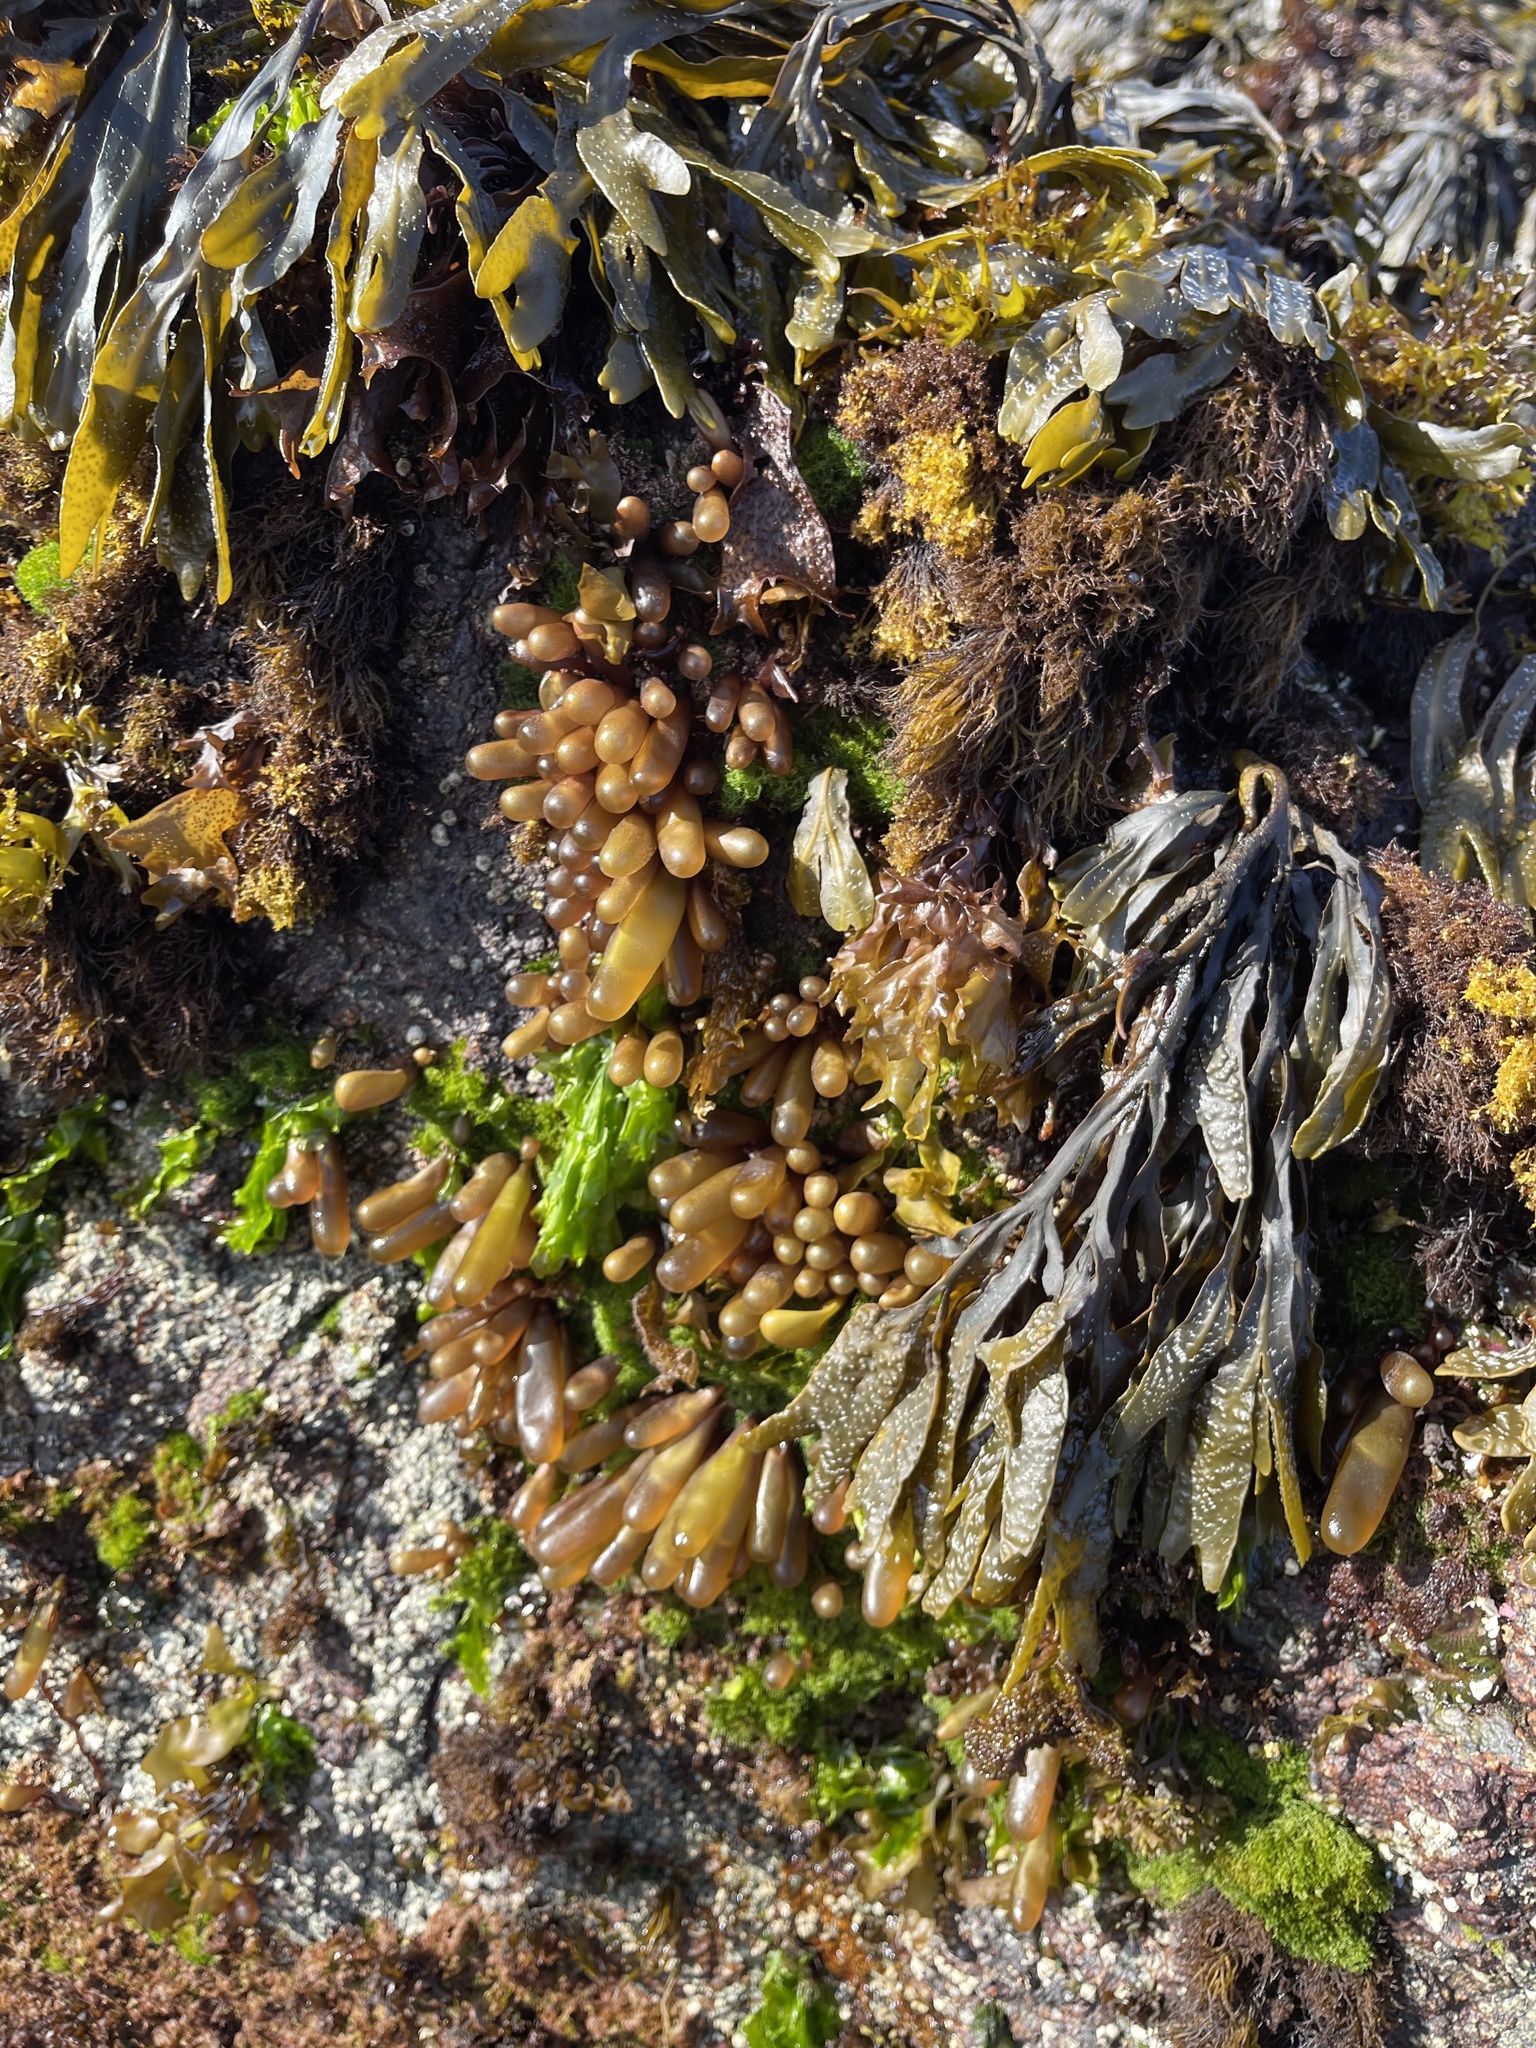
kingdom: Plantae
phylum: Rhodophyta
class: Florideophyceae
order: Palmariales
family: Palmariaceae
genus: Halosaccion
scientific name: Halosaccion glandiforme
